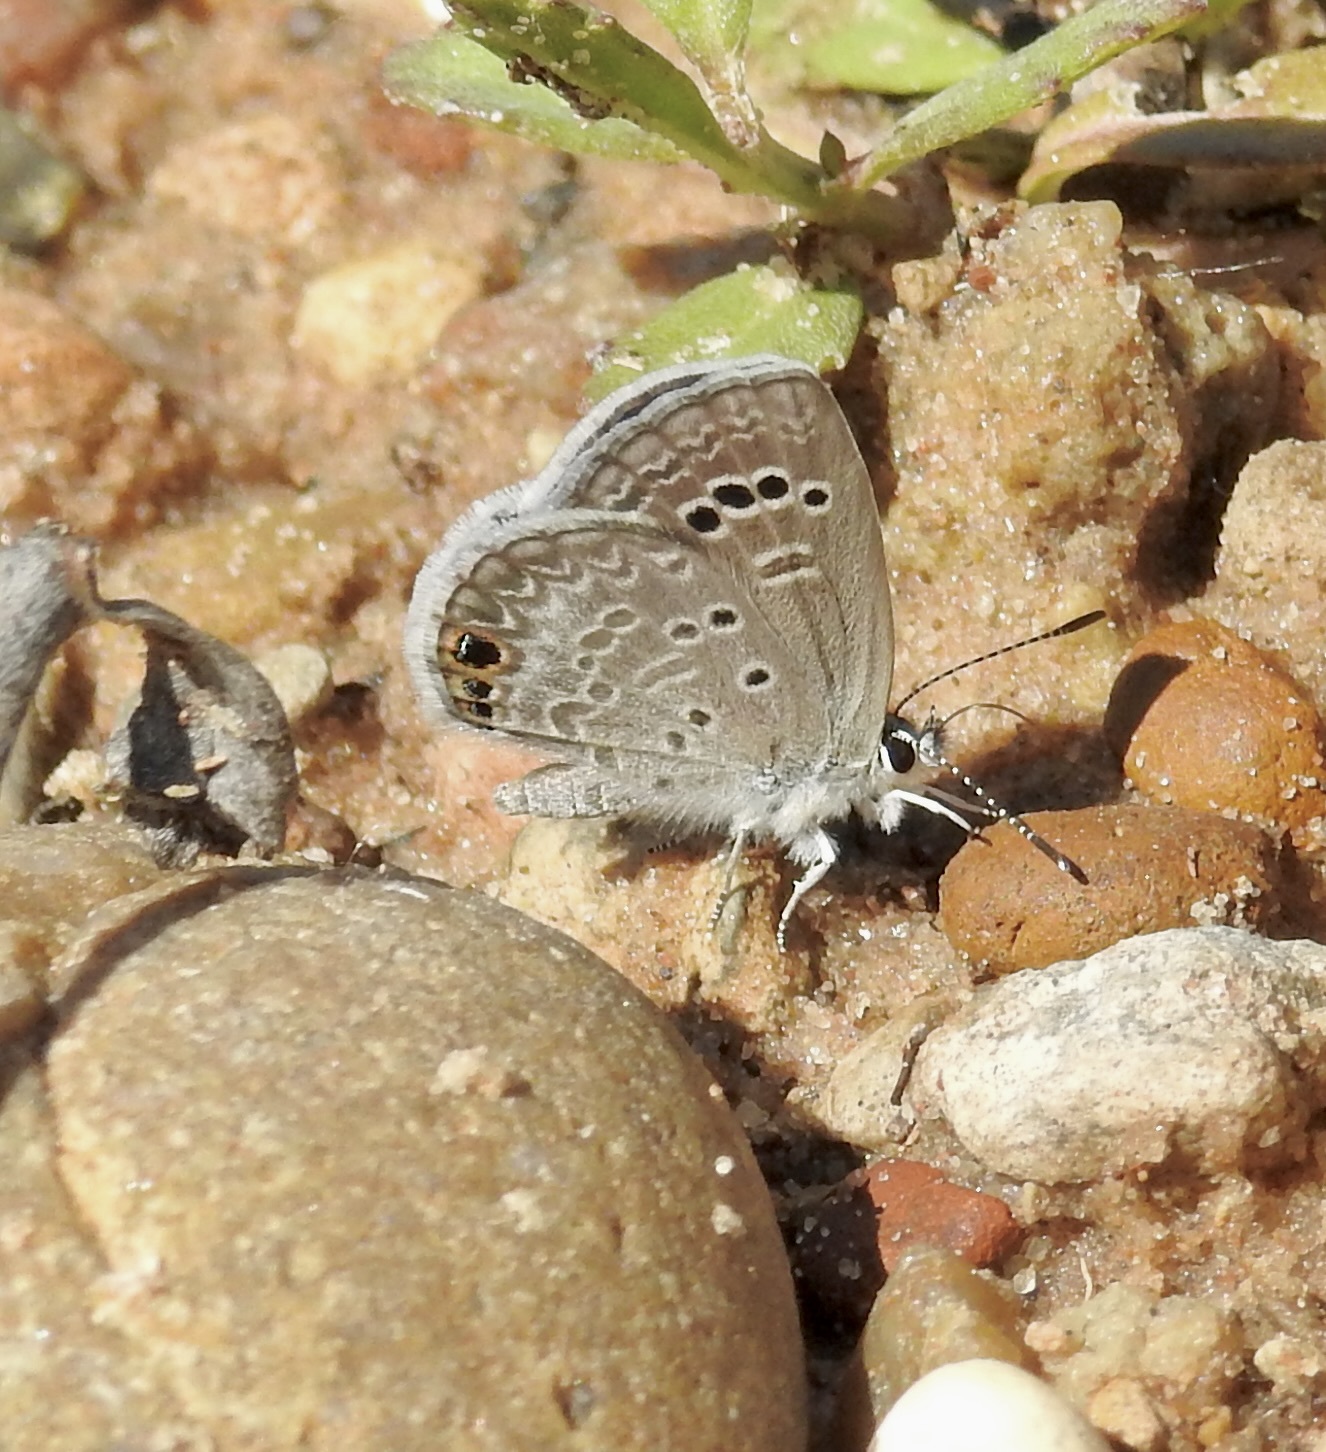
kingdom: Animalia
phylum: Arthropoda
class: Insecta
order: Lepidoptera
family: Lycaenidae
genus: Echinargus
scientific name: Echinargus isola
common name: Reakirt's blue
